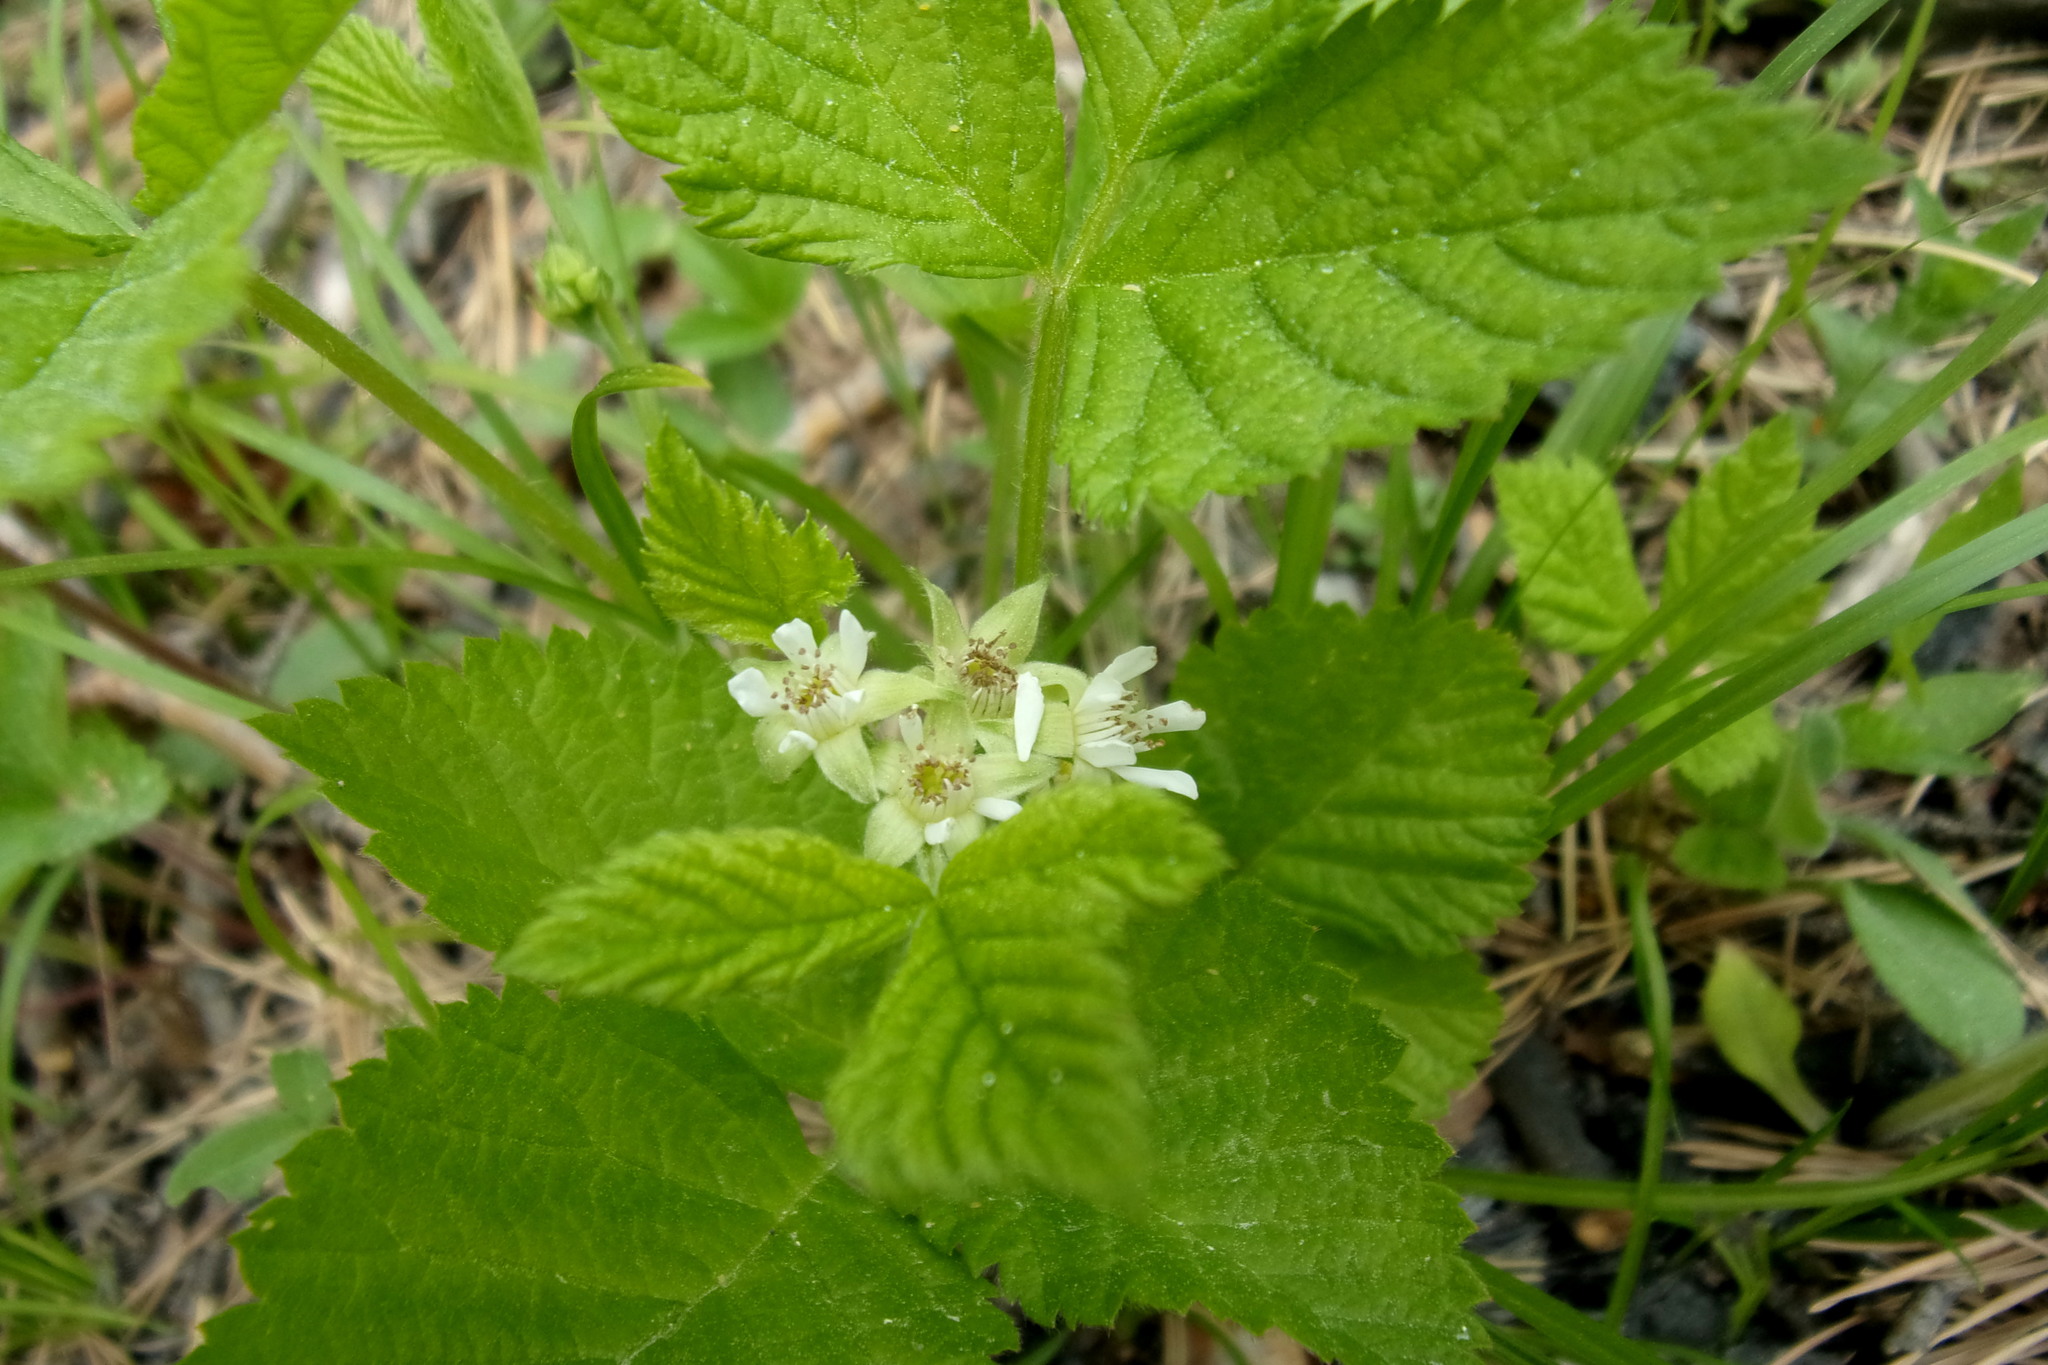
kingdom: Plantae
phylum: Tracheophyta
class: Magnoliopsida
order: Rosales
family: Rosaceae
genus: Rubus
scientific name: Rubus saxatilis
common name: Stone bramble
